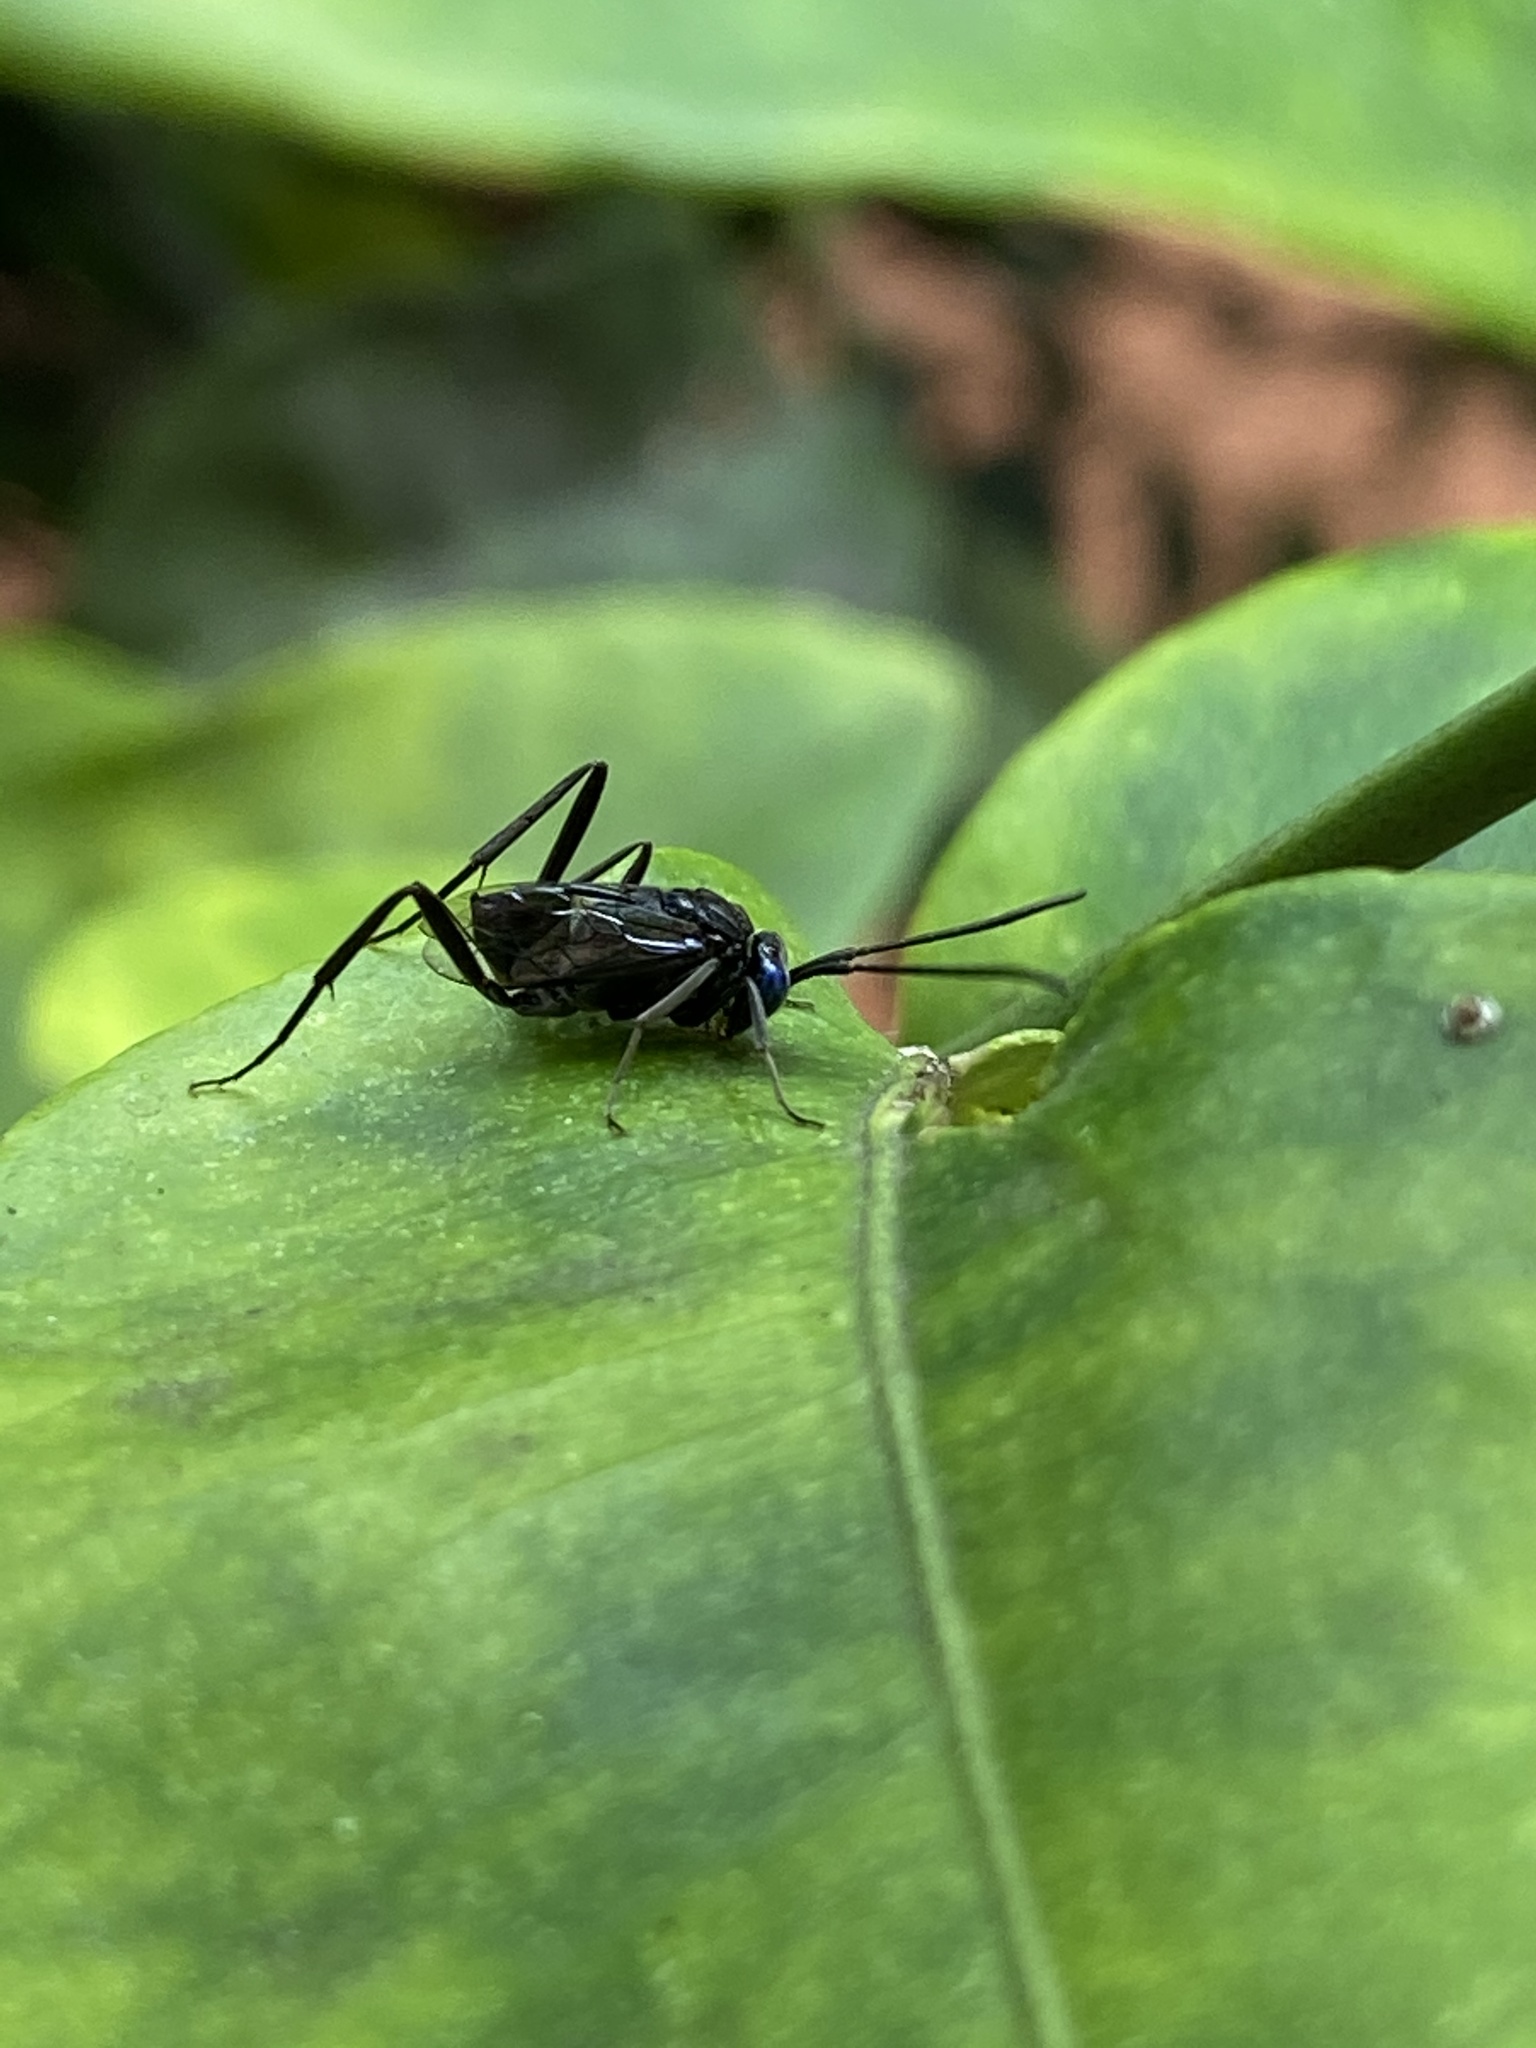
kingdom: Animalia
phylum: Arthropoda
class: Insecta
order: Hymenoptera
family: Evaniidae
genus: Evania
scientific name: Evania appendigaster
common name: Ensign wasp
